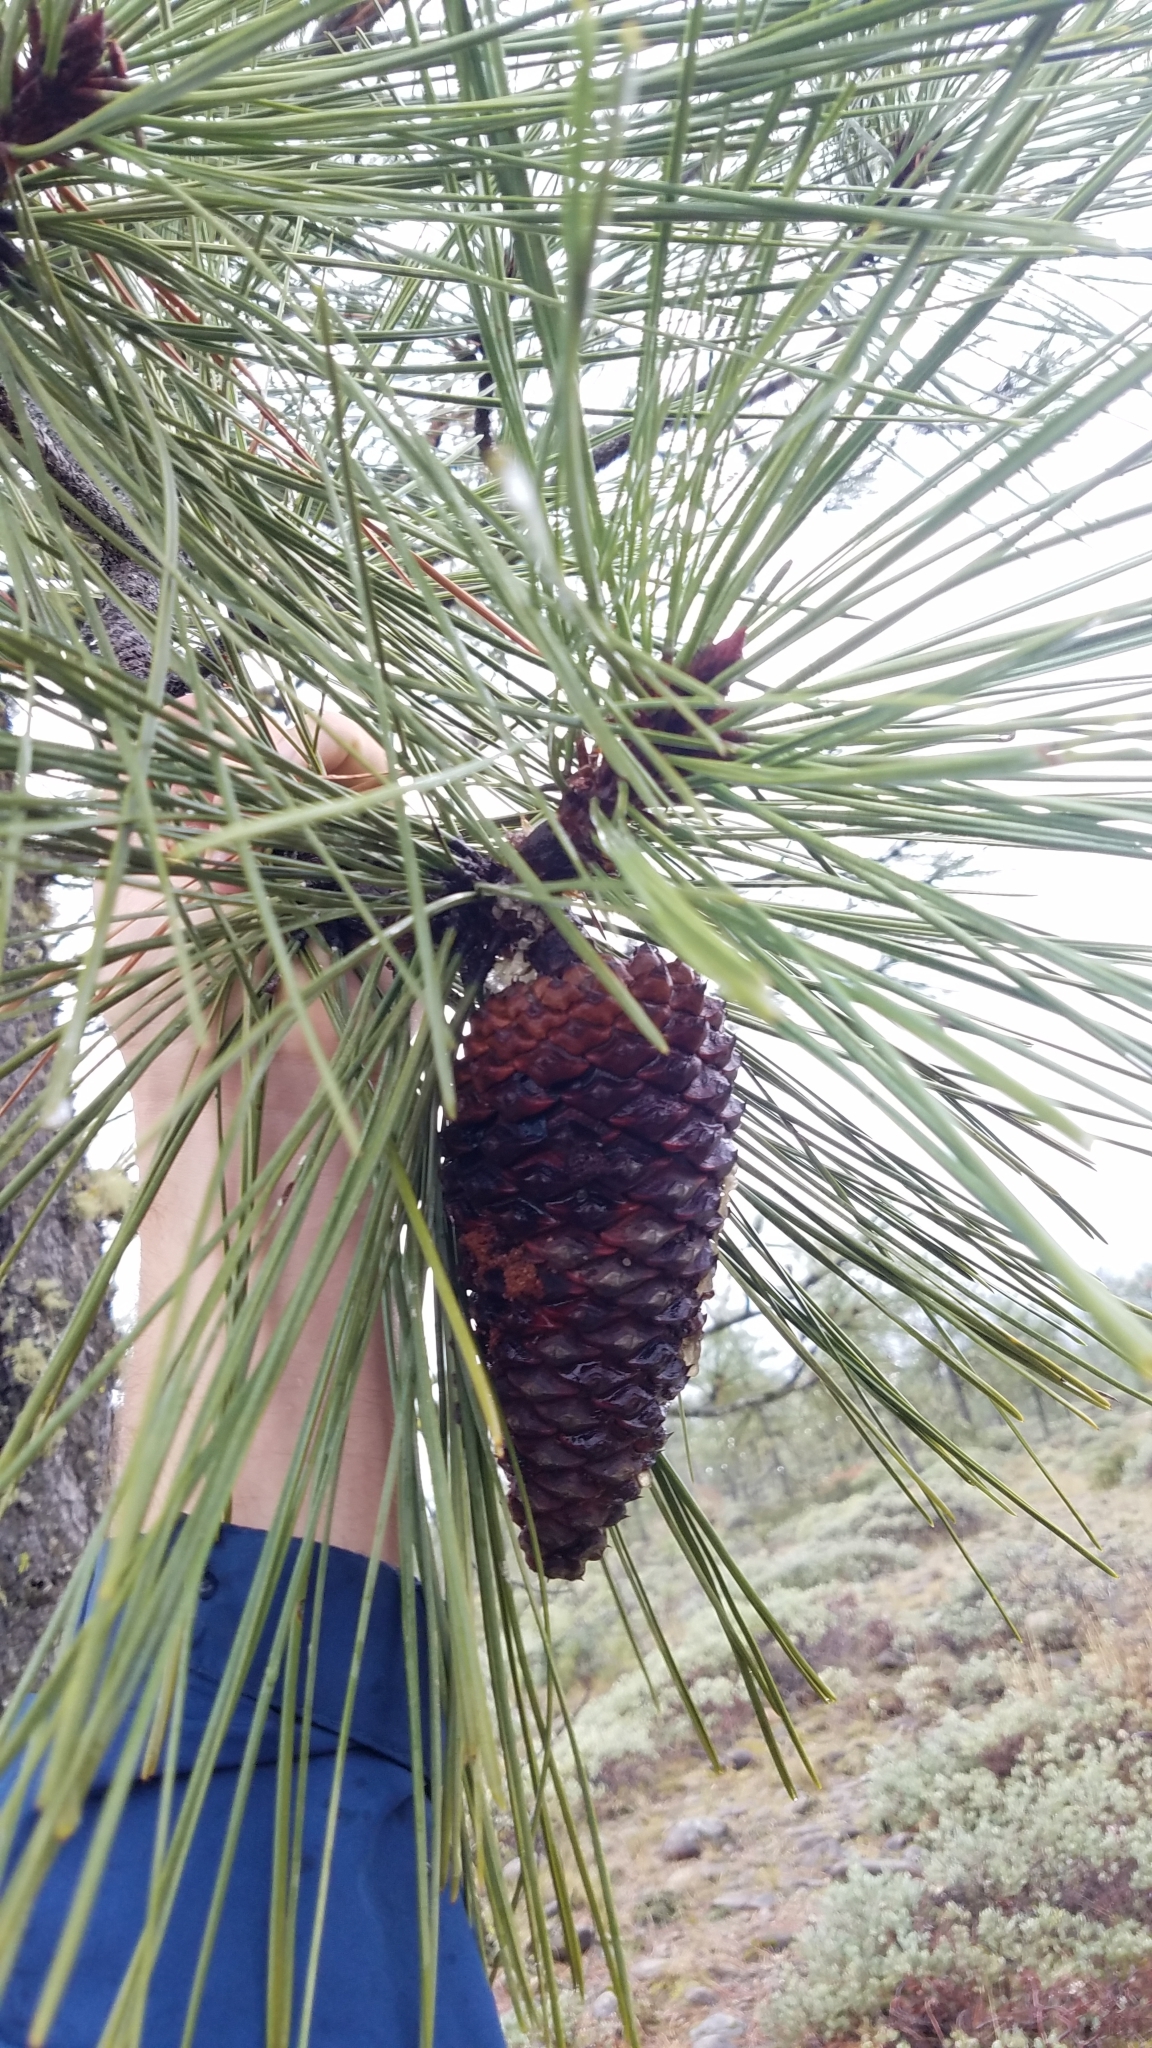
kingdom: Plantae
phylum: Tracheophyta
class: Pinopsida
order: Pinales
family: Pinaceae
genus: Pinus
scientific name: Pinus jeffreyi
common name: Jeffrey pine
